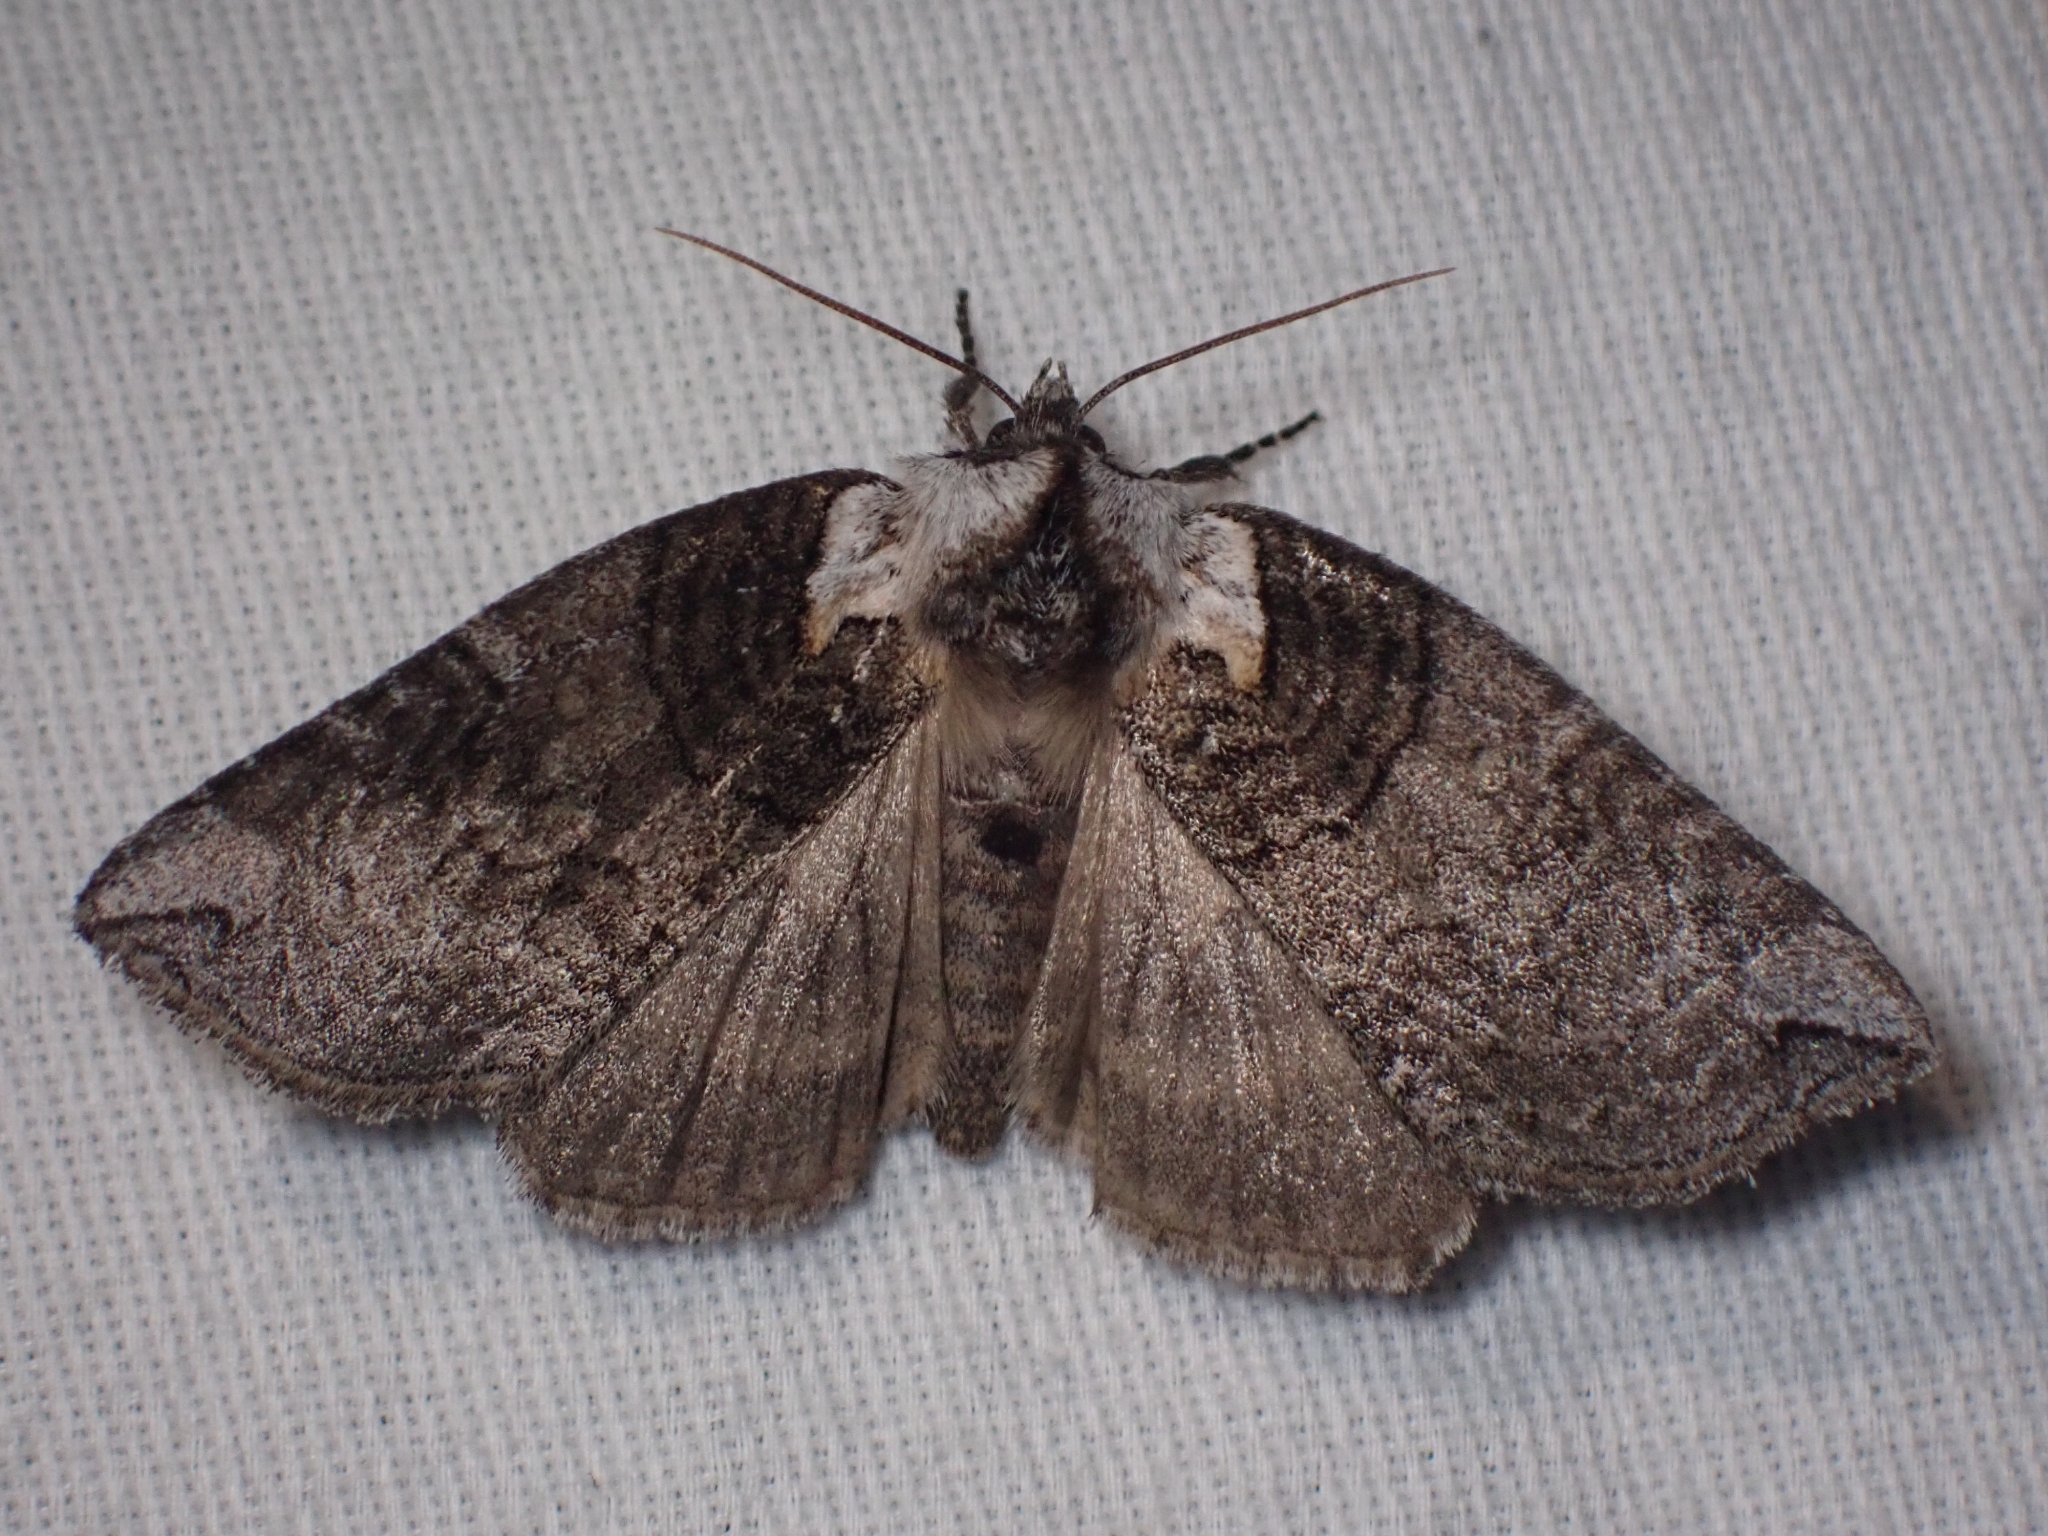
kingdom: Animalia
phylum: Arthropoda
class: Insecta
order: Lepidoptera
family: Drepanidae
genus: Euthyatira
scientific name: Euthyatira semicircularis
